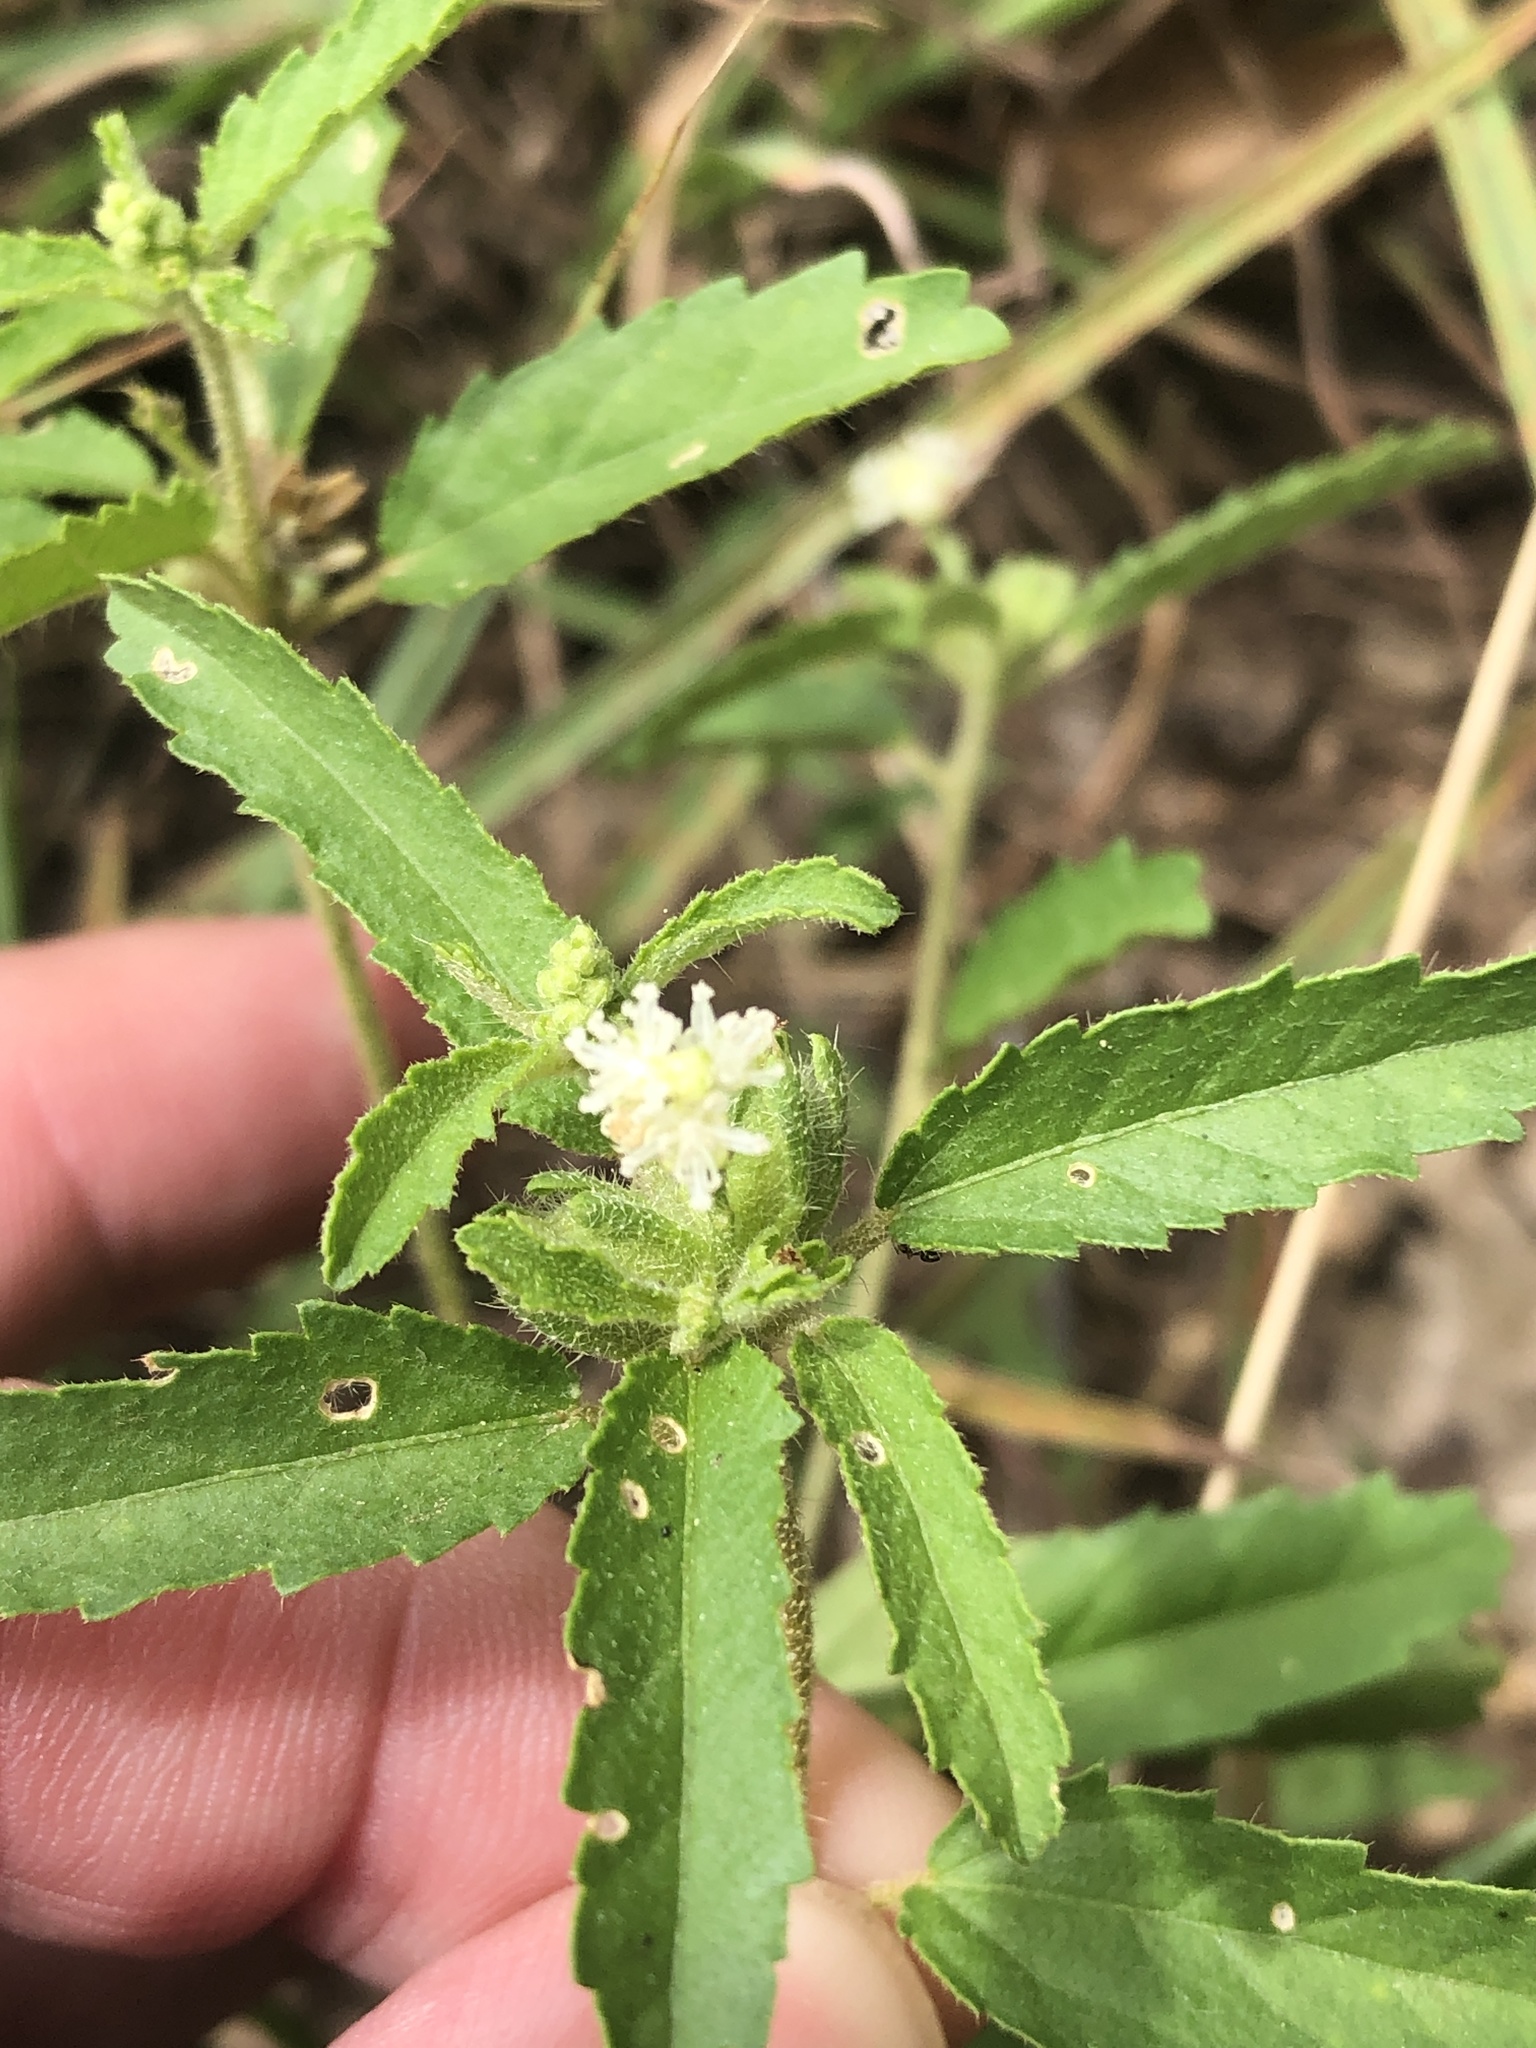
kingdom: Plantae
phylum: Tracheophyta
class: Magnoliopsida
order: Malpighiales
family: Euphorbiaceae
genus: Croton
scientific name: Croton glandulosus
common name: Tropic croton
